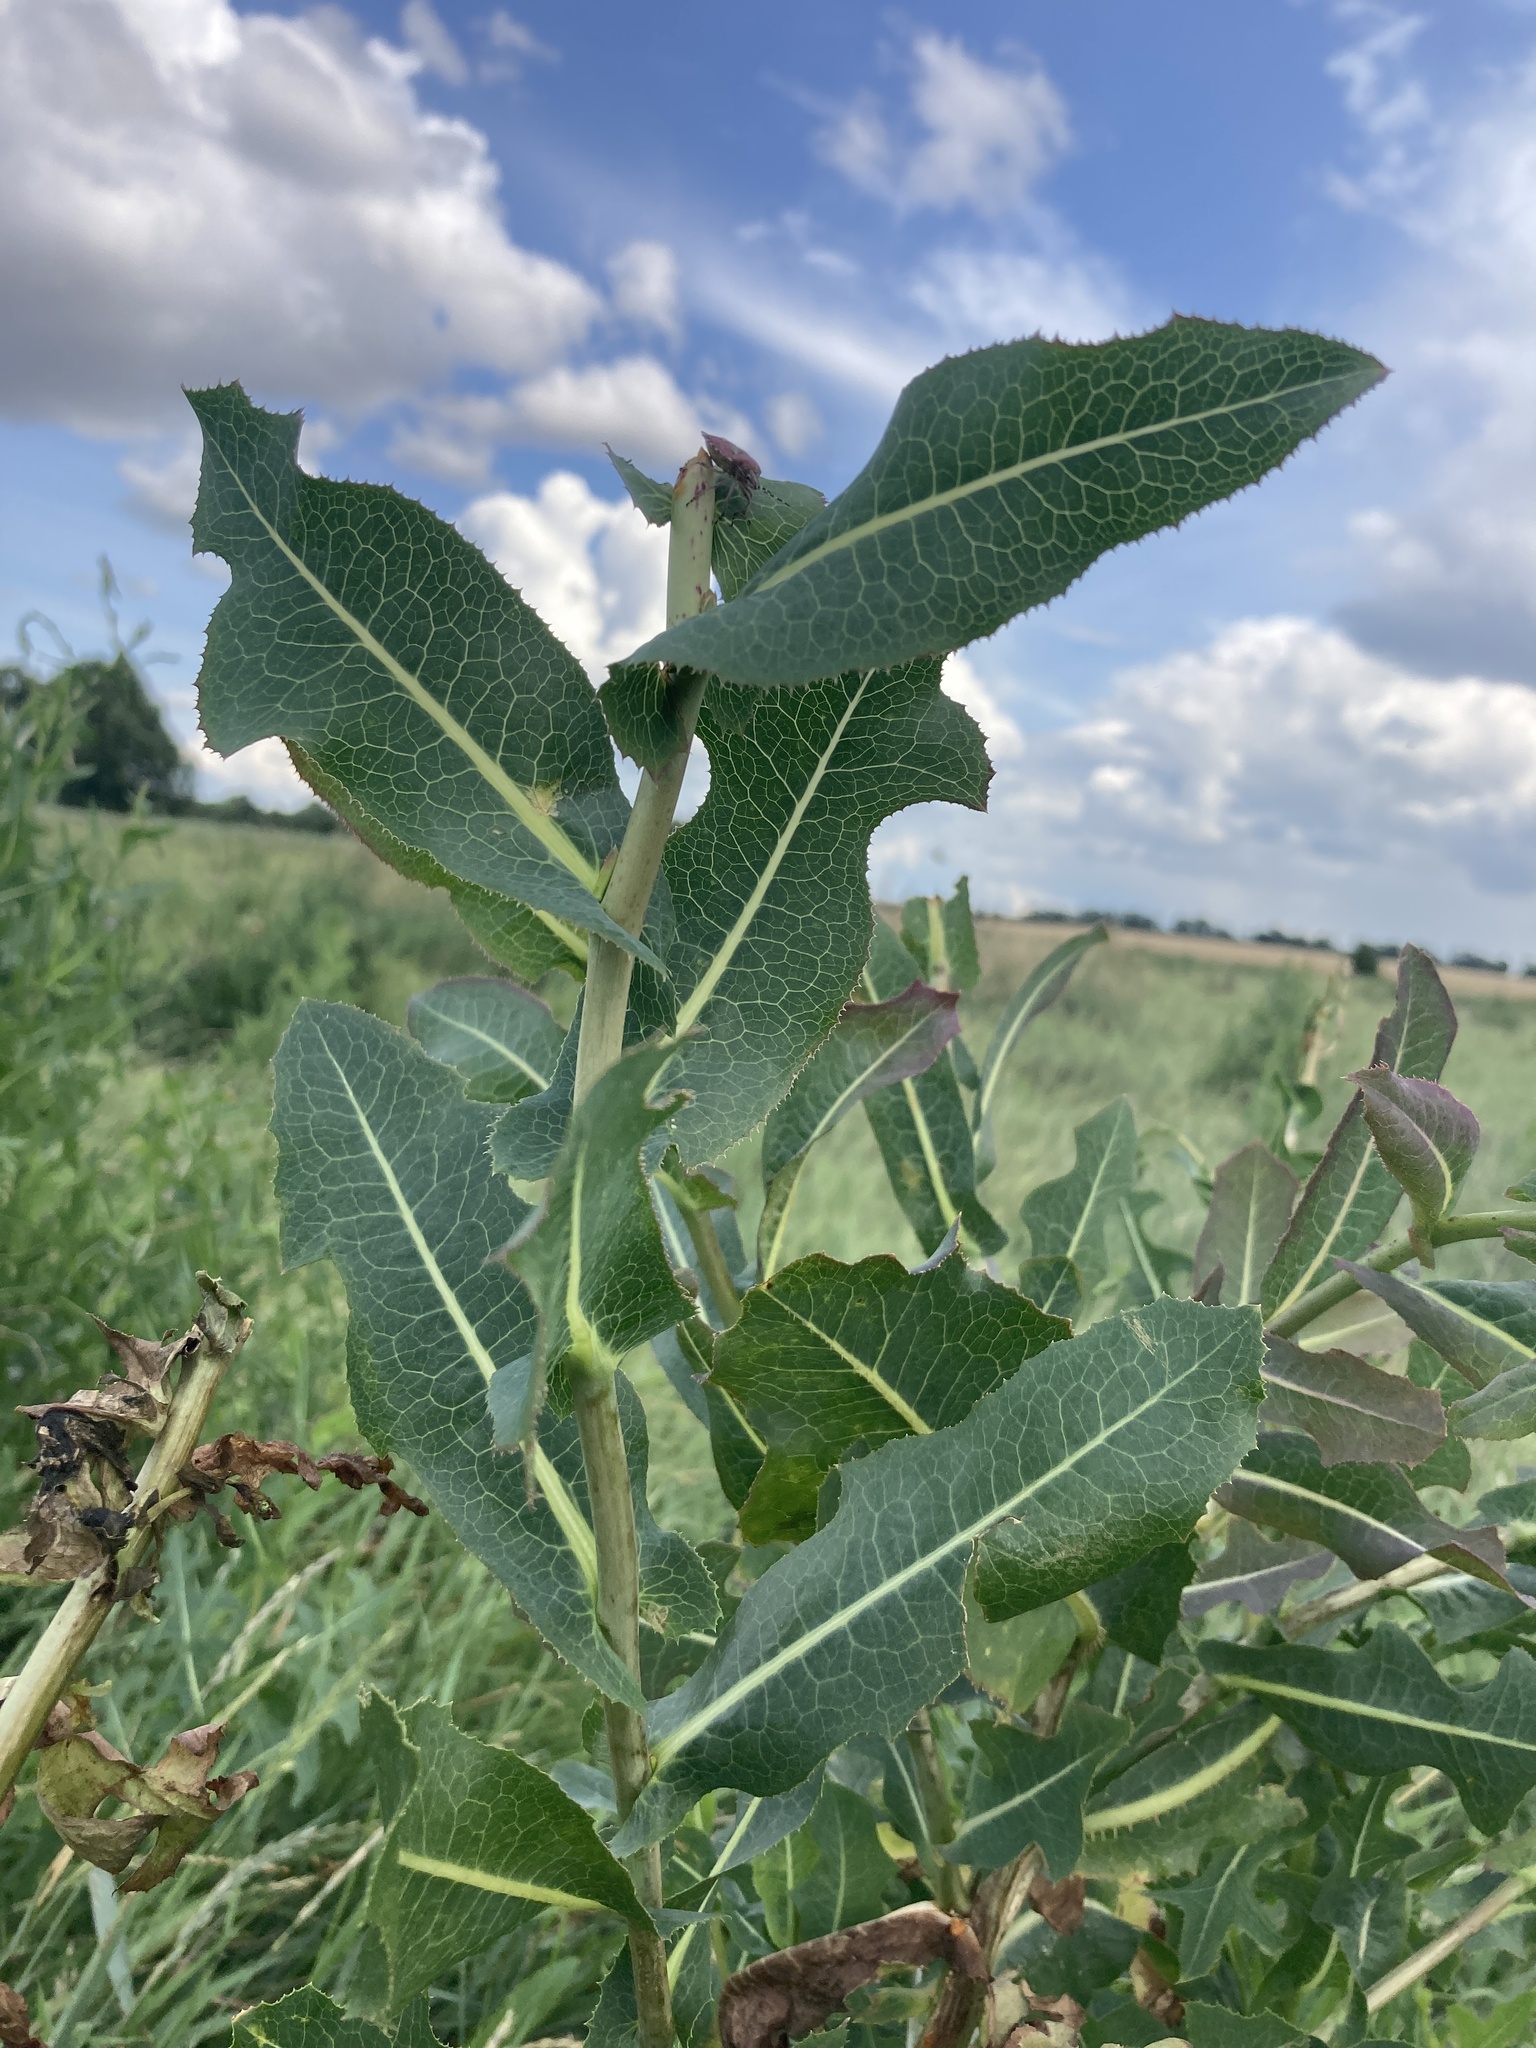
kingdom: Plantae
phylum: Tracheophyta
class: Magnoliopsida
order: Asterales
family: Asteraceae
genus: Lactuca
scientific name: Lactuca serriola
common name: Prickly lettuce
